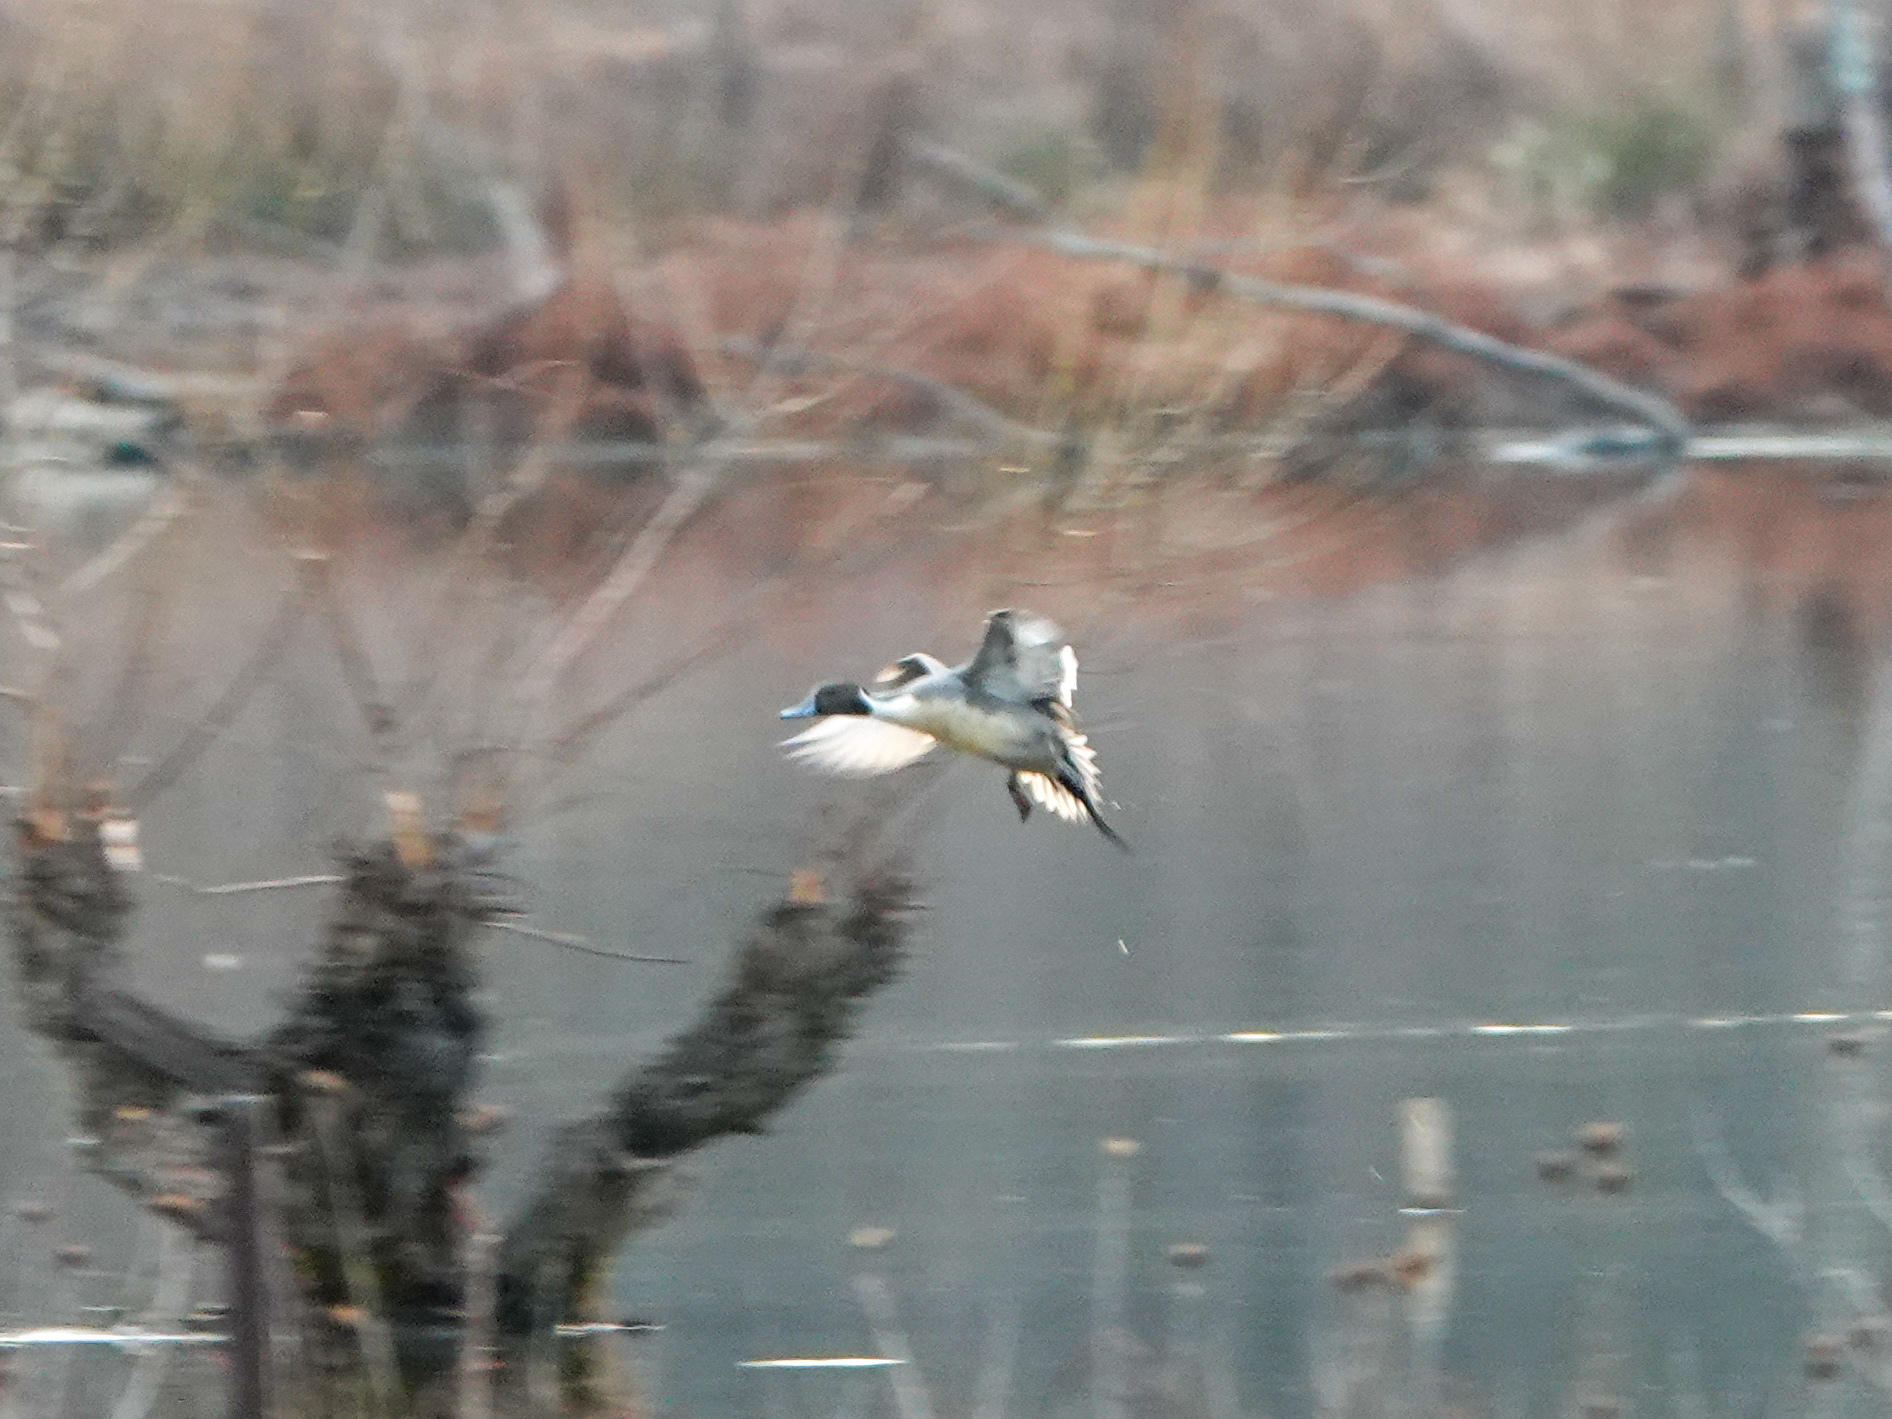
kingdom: Animalia
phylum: Chordata
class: Aves
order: Anseriformes
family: Anatidae
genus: Anas
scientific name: Anas acuta
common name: Northern pintail
